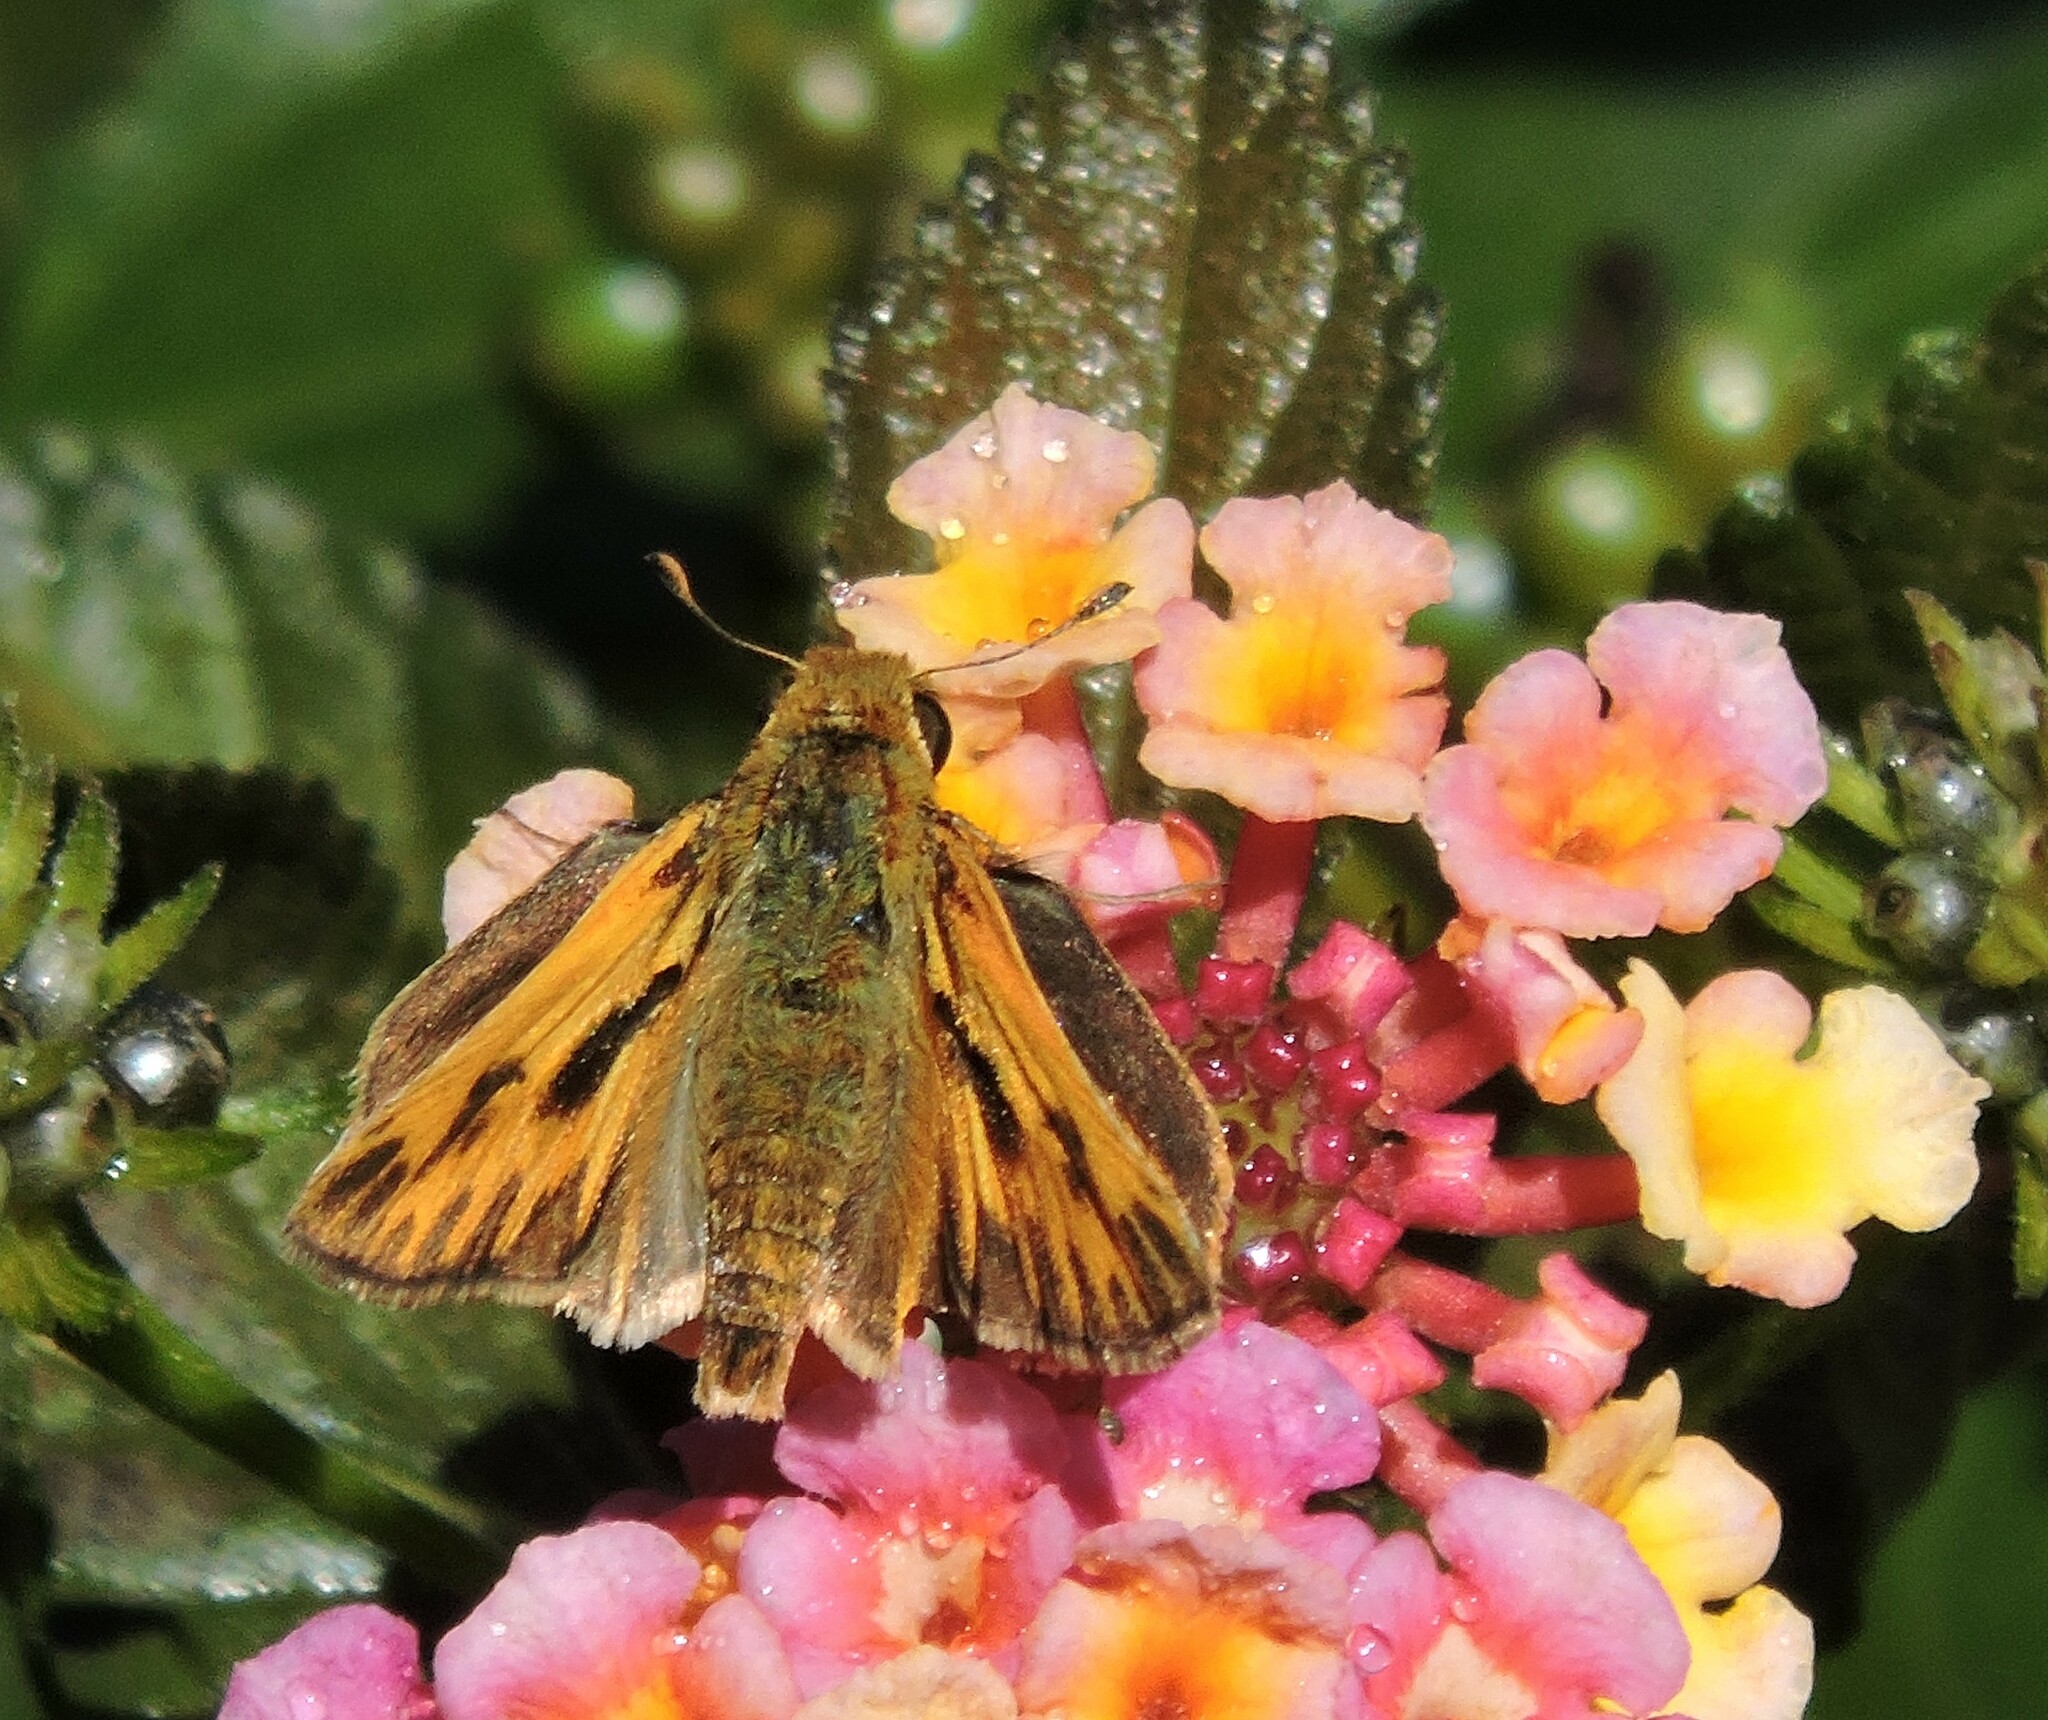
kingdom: Animalia
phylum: Arthropoda
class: Insecta
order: Lepidoptera
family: Hesperiidae
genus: Hylephila
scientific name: Hylephila phyleus
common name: Fiery skipper
